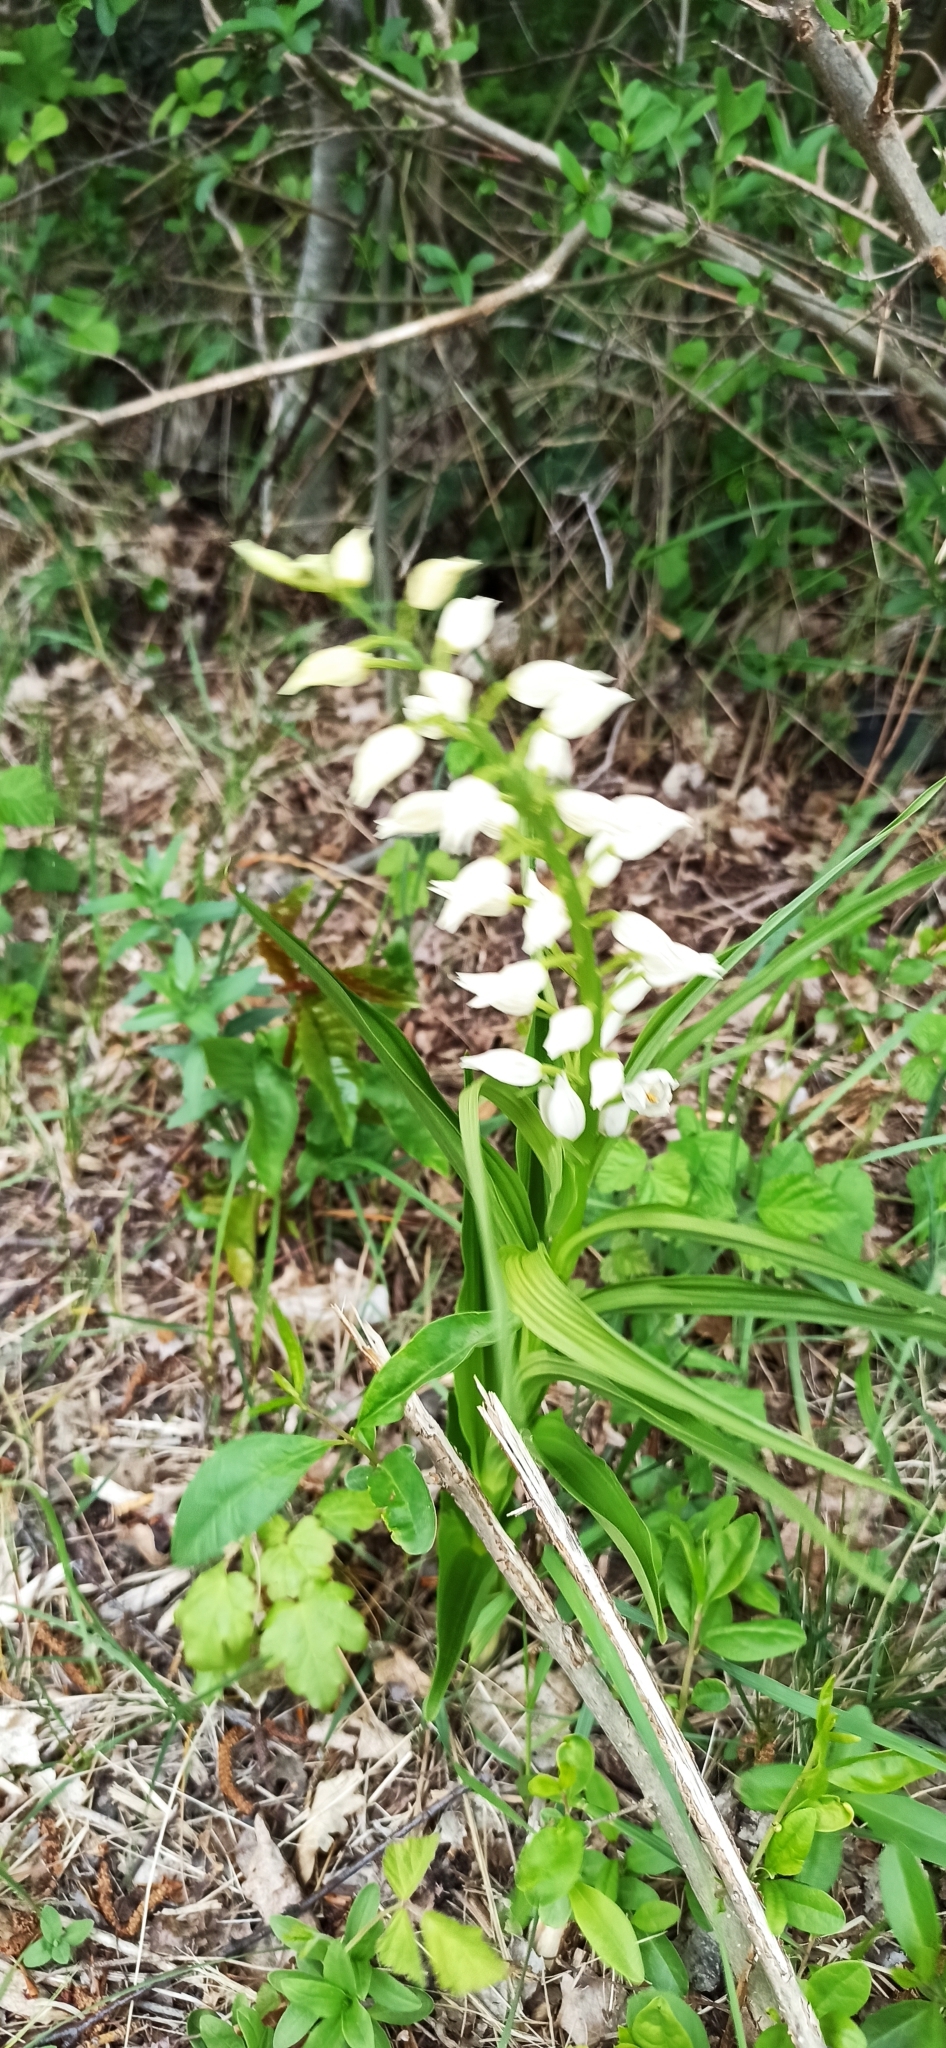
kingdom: Plantae
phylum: Tracheophyta
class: Liliopsida
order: Asparagales
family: Orchidaceae
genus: Cephalanthera
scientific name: Cephalanthera longifolia
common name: Narrow-leaved helleborine
